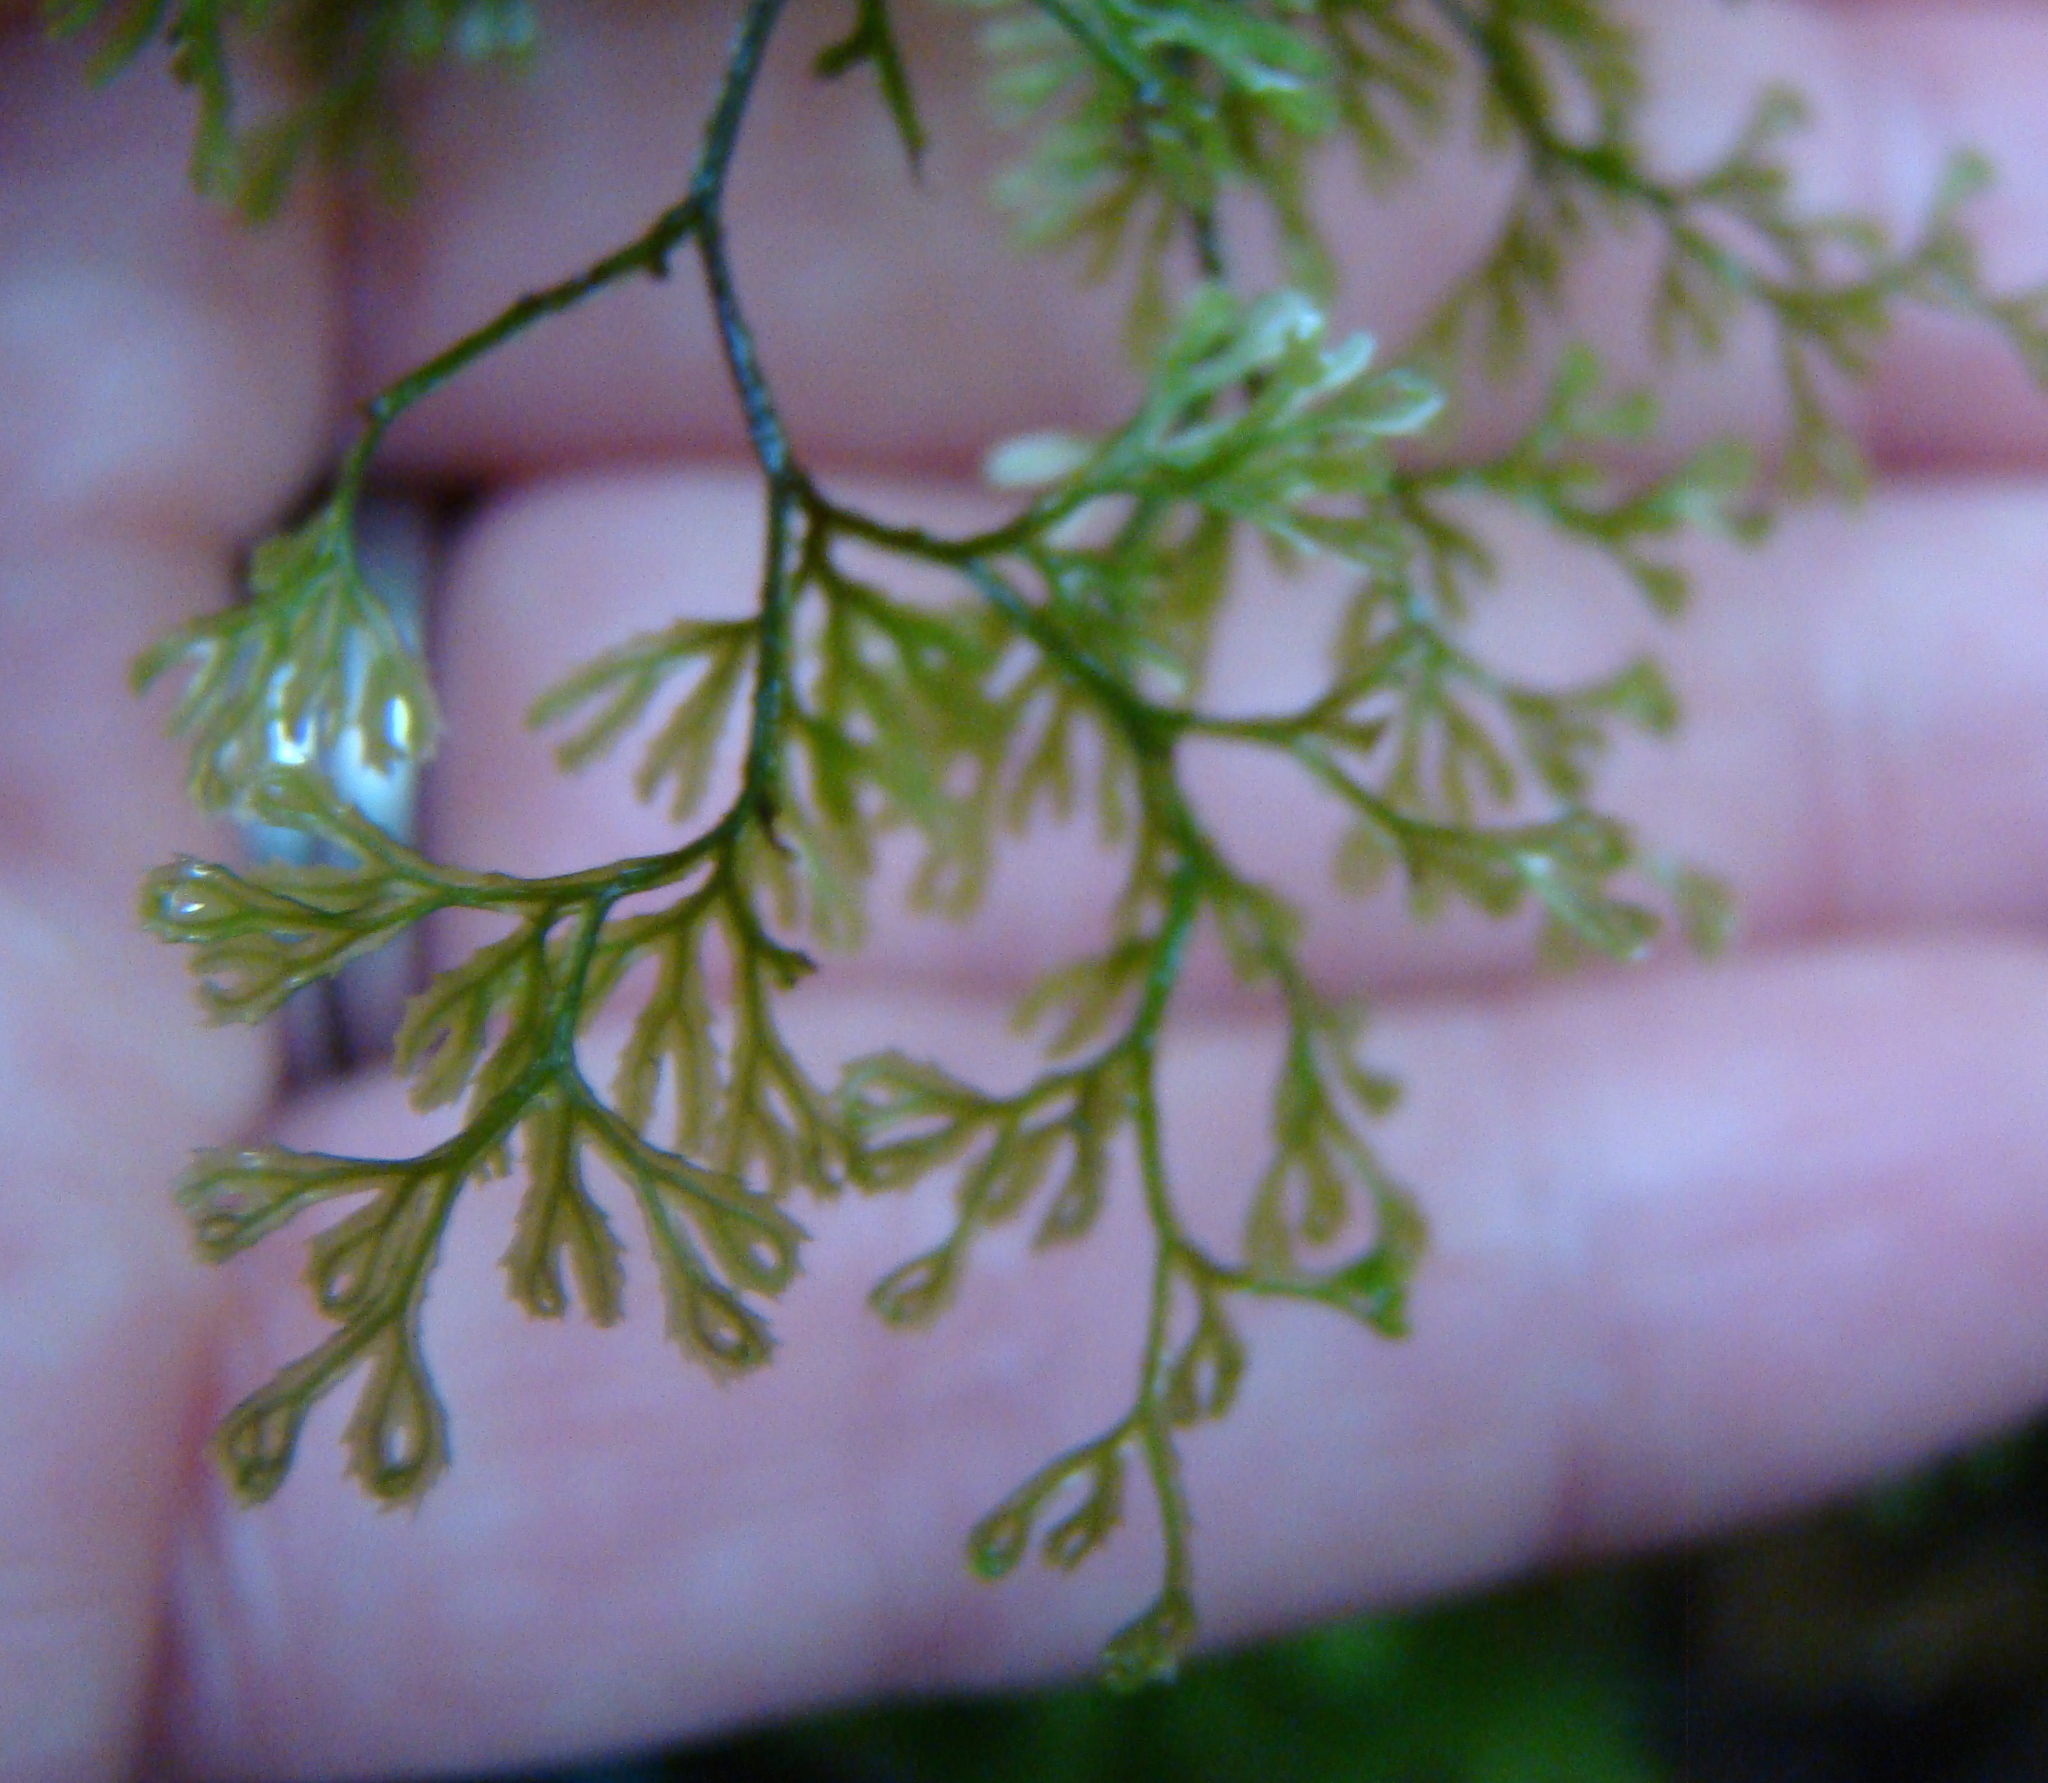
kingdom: Plantae
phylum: Tracheophyta
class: Polypodiopsida
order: Hymenophyllales
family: Hymenophyllaceae
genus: Hymenophyllum
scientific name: Hymenophyllum multifidum
